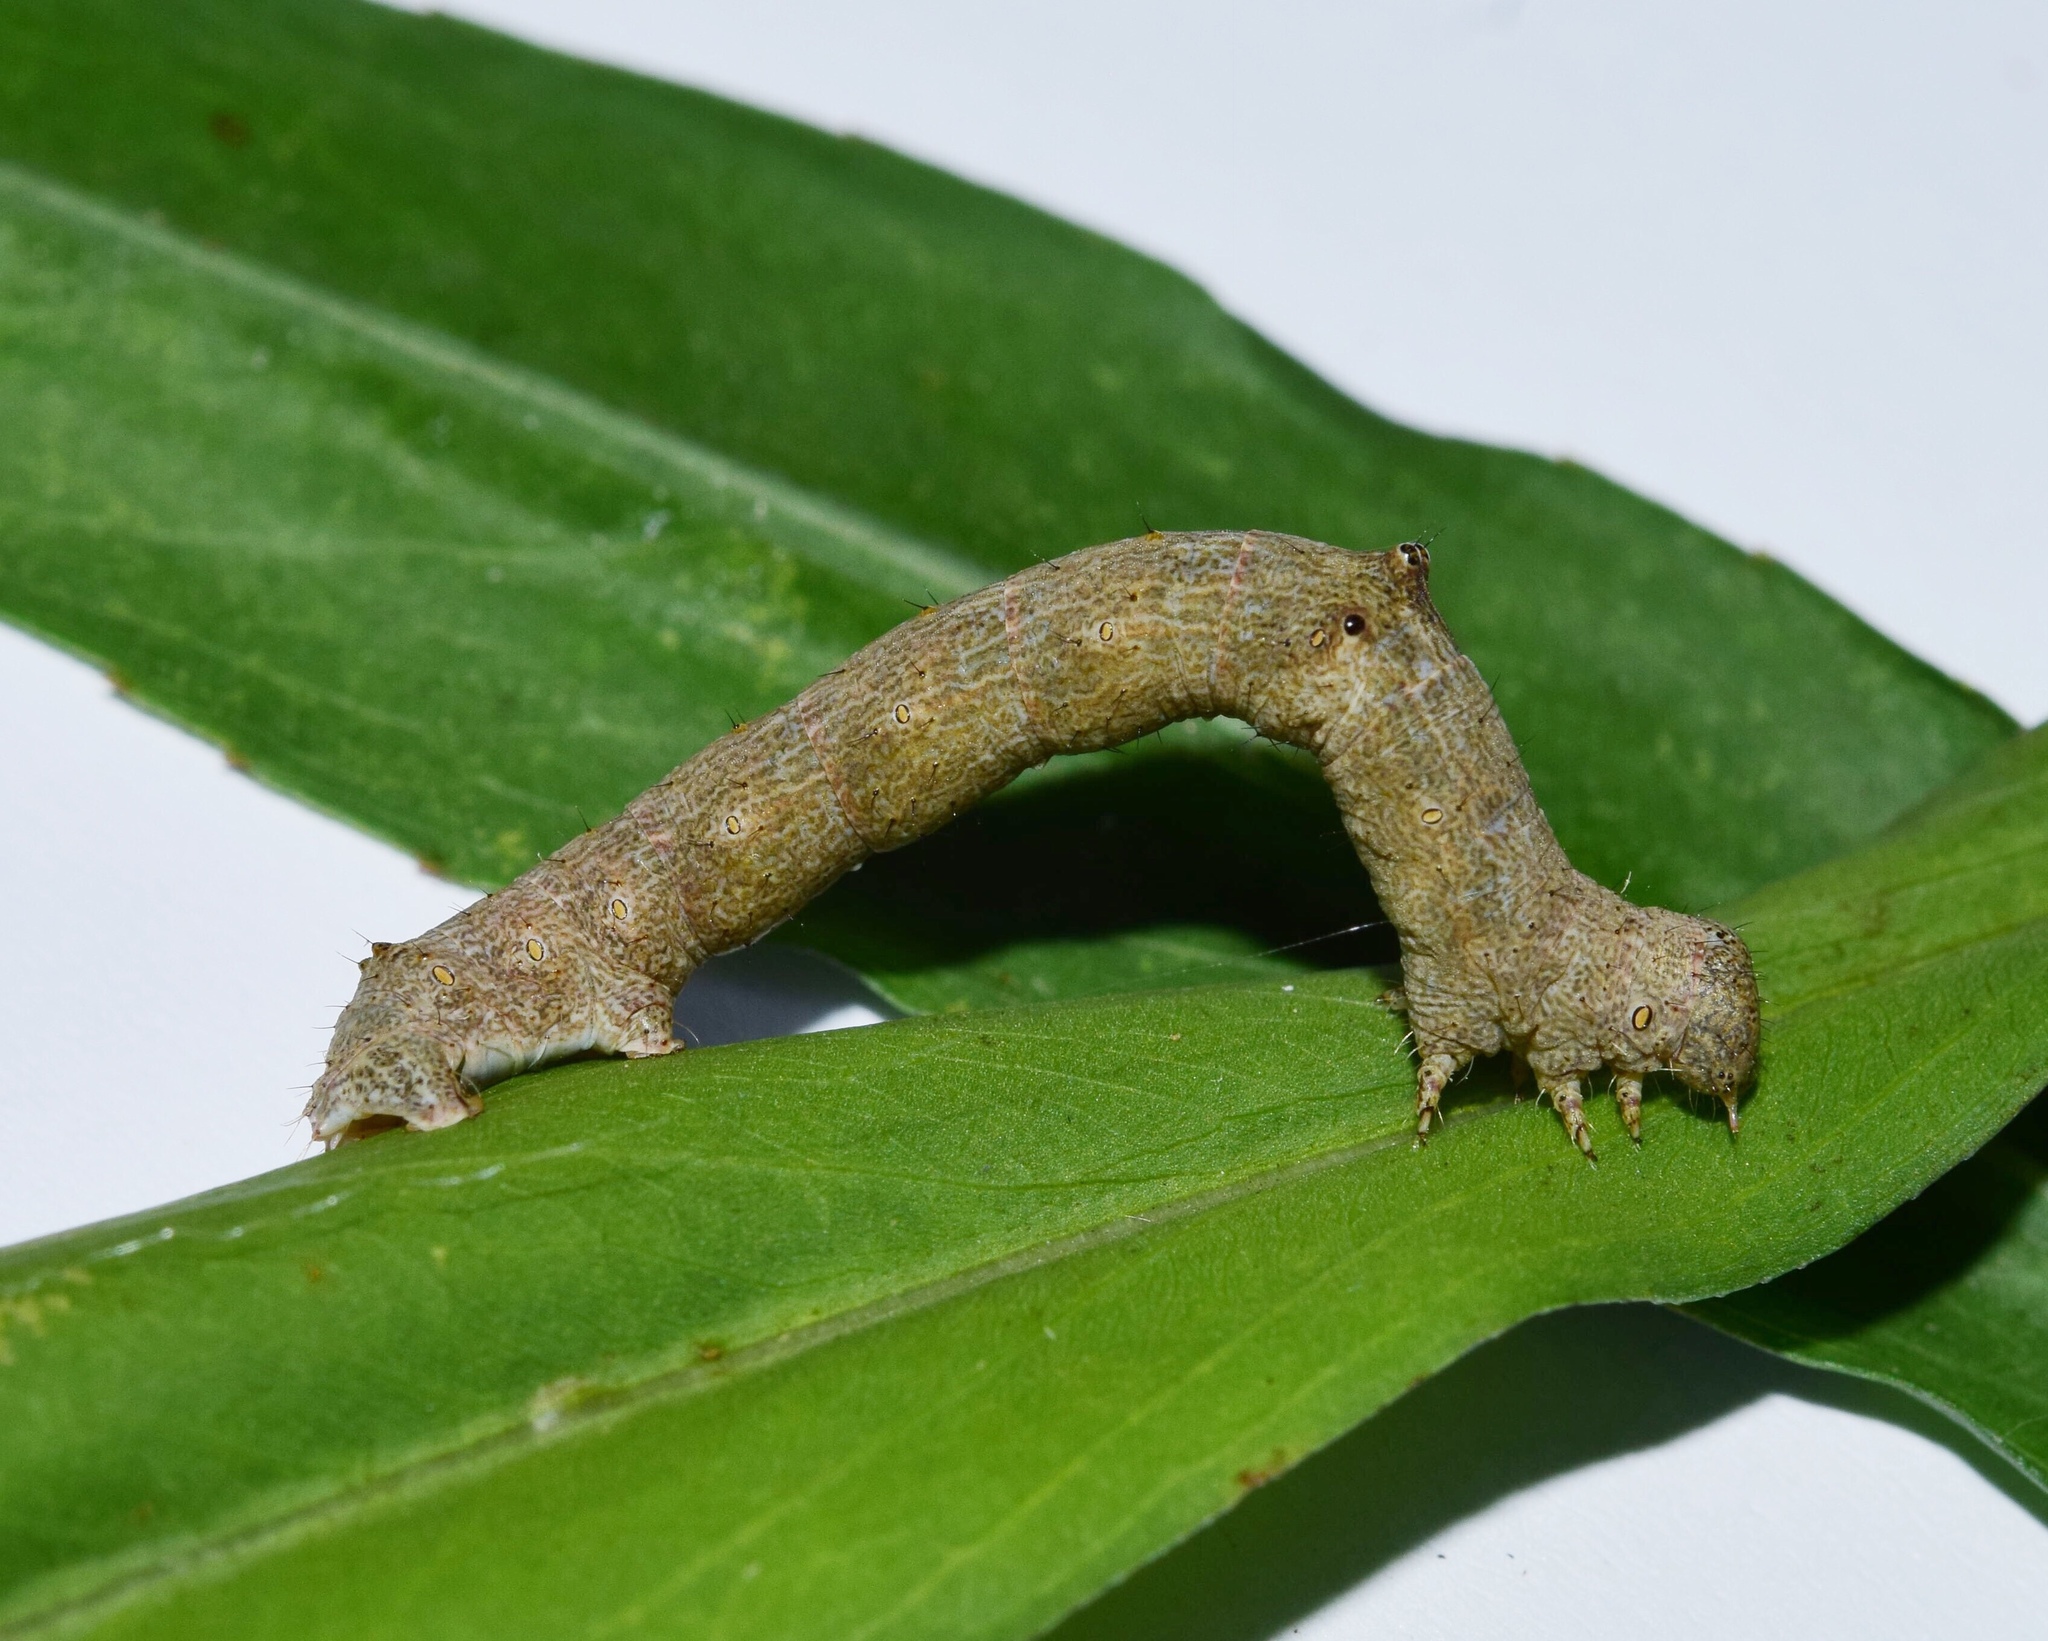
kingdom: Animalia
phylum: Arthropoda
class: Insecta
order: Lepidoptera
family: Geometridae
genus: Ascotis
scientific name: Ascotis reciprocaria
